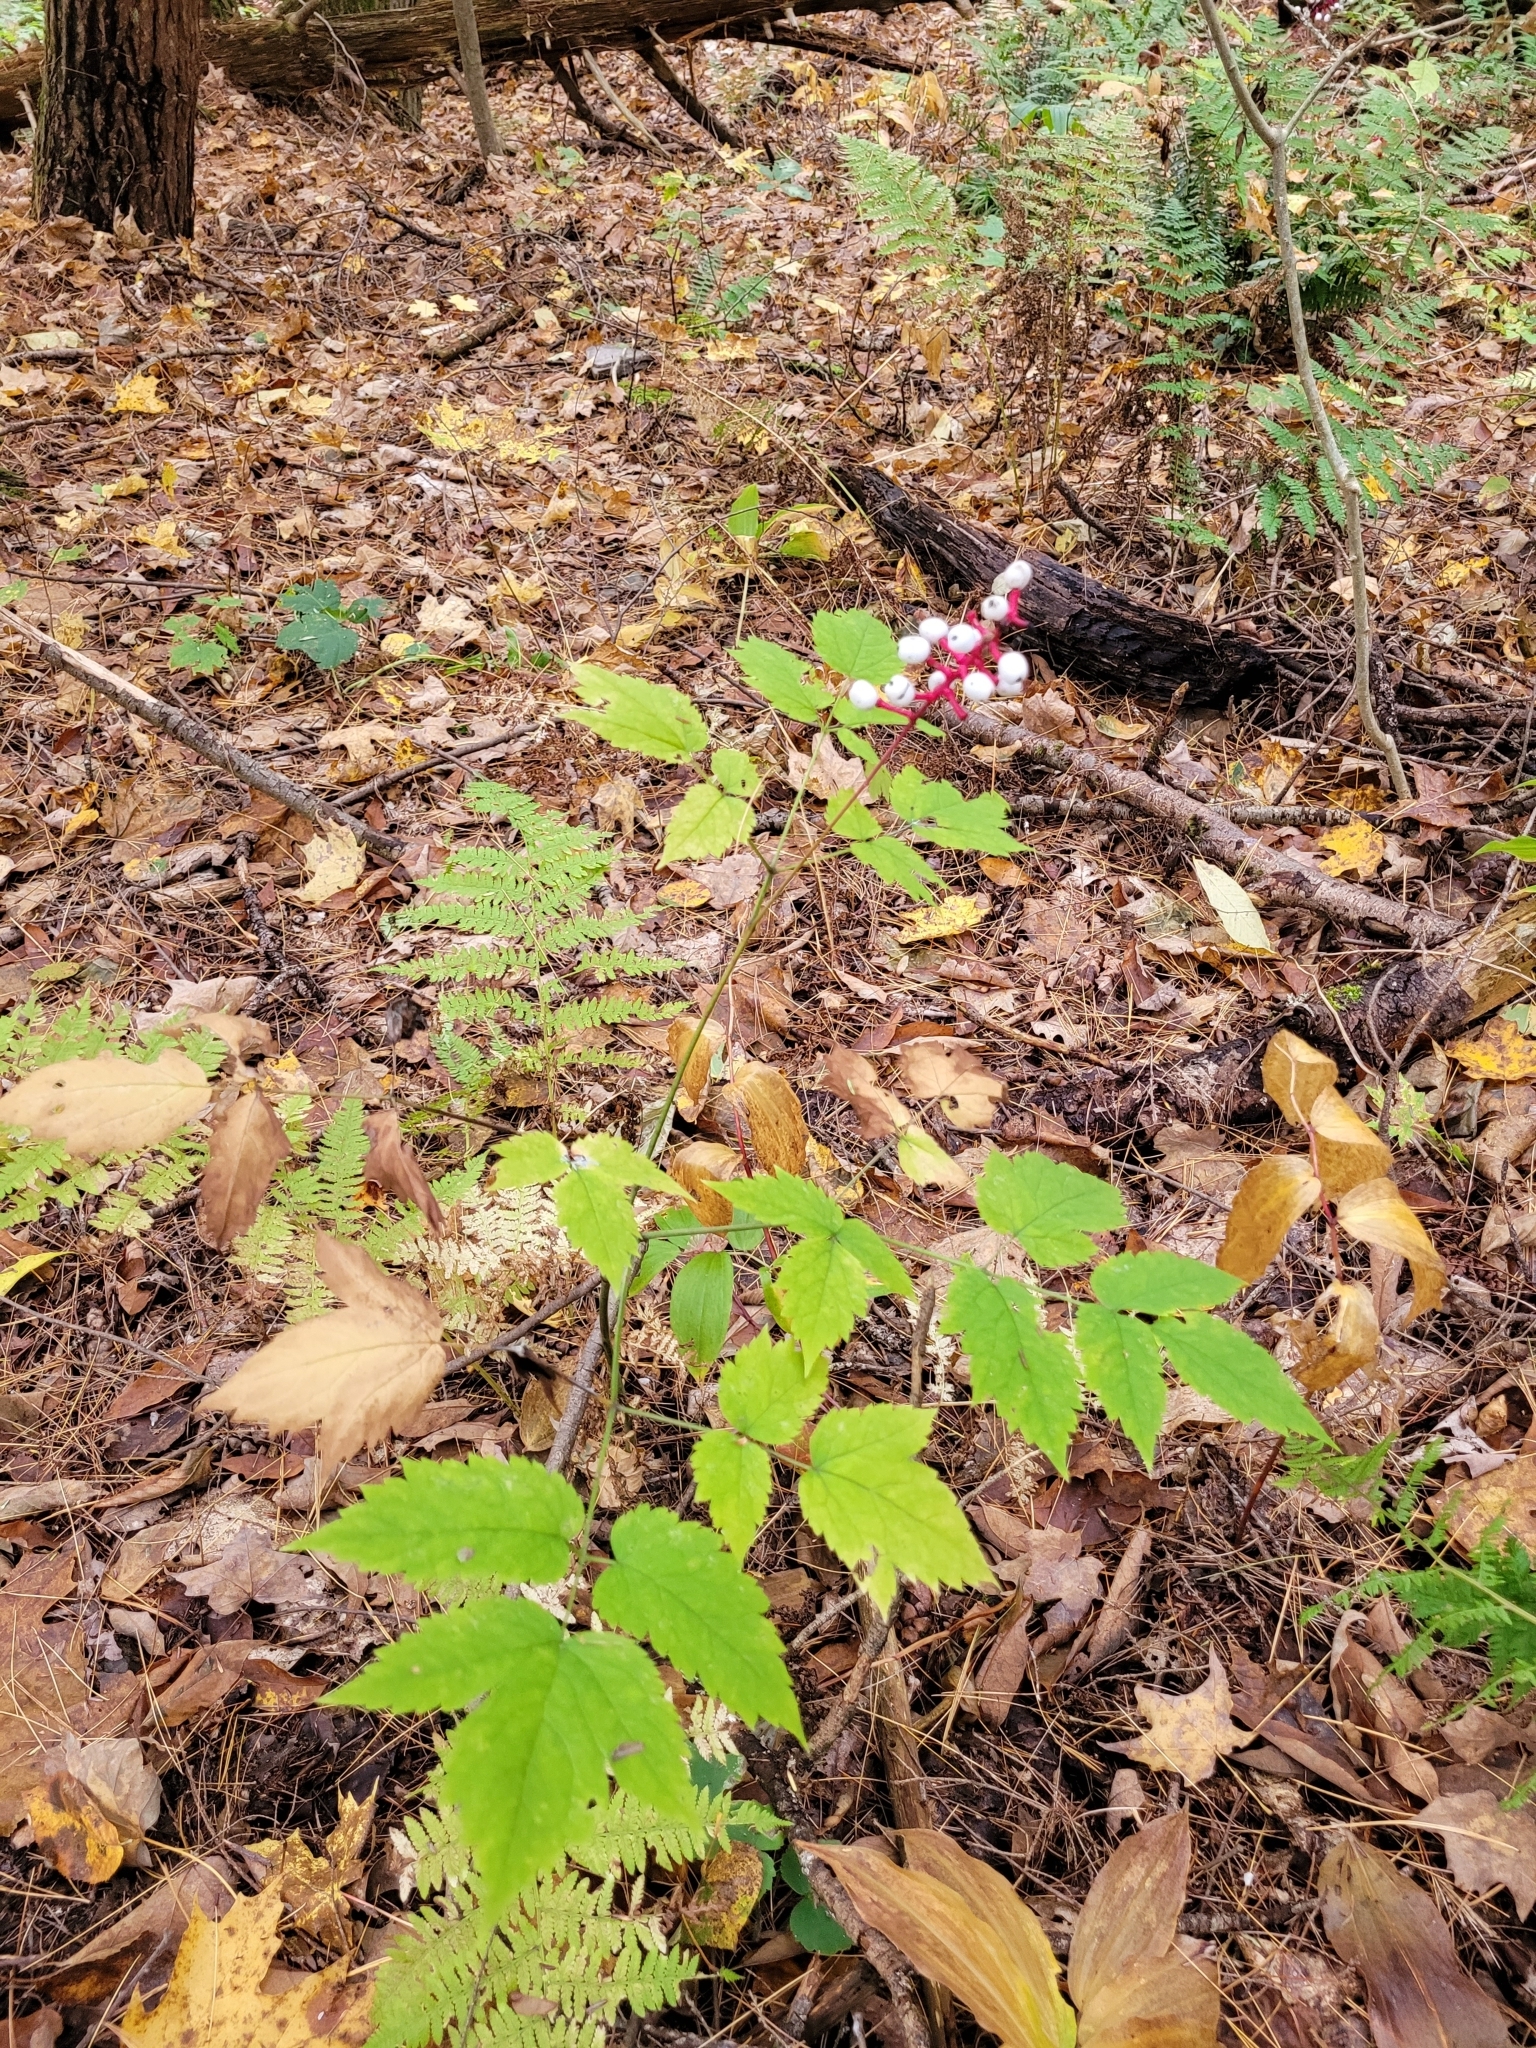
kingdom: Plantae
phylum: Tracheophyta
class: Magnoliopsida
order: Ranunculales
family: Ranunculaceae
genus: Actaea
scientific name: Actaea pachypoda
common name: Doll's-eyes
